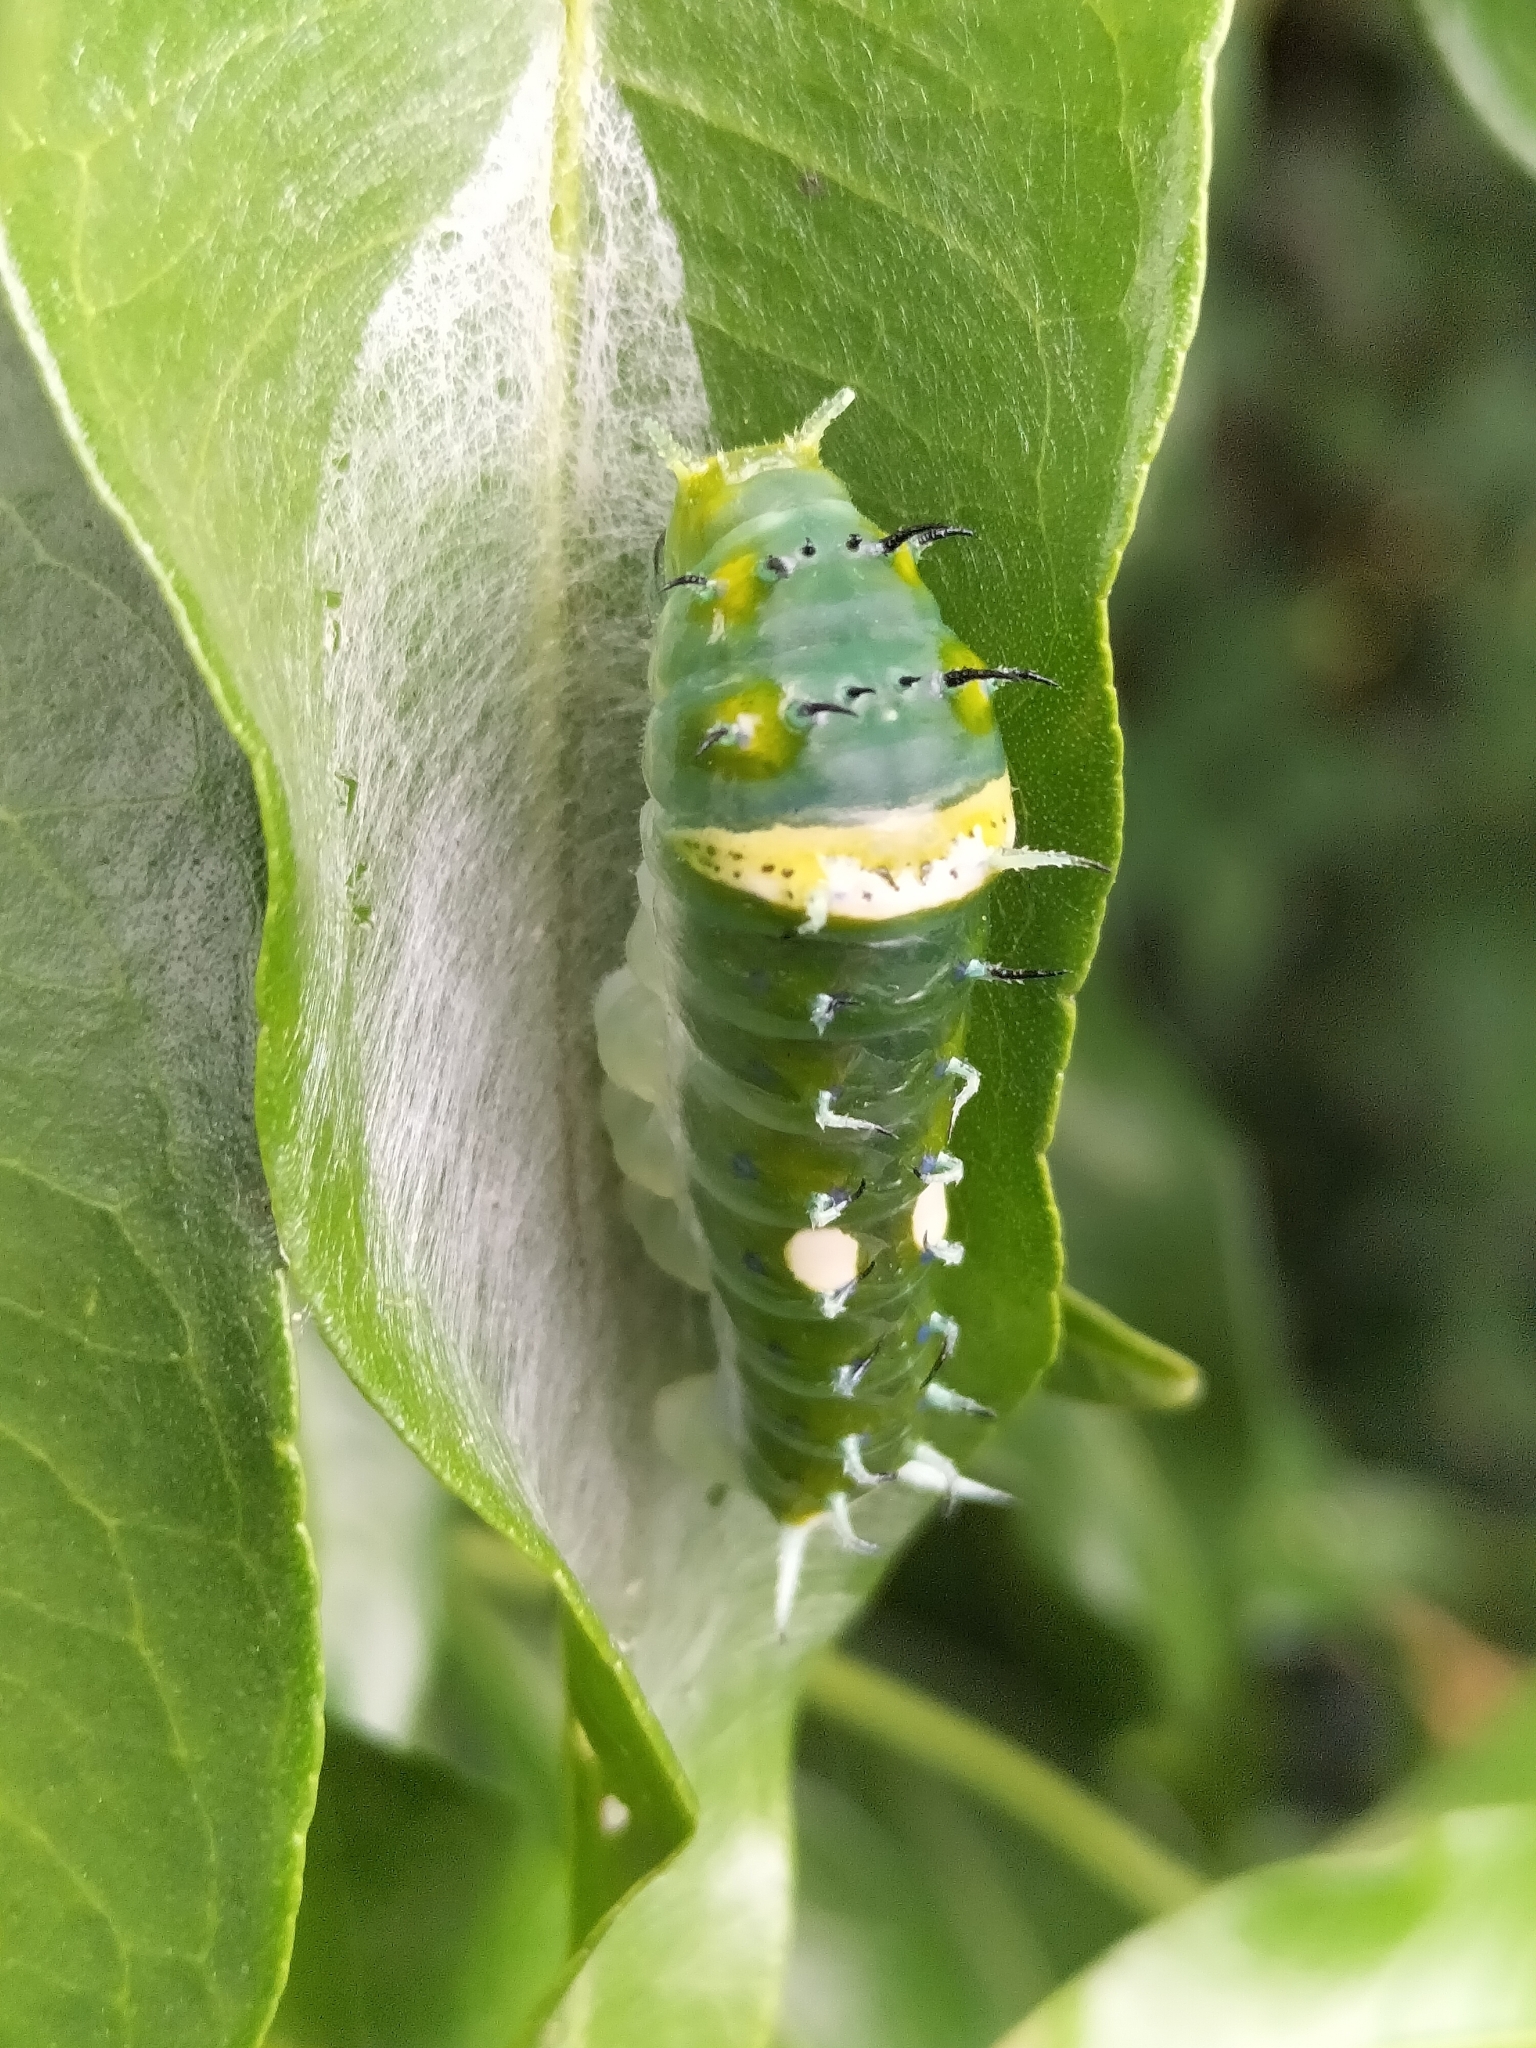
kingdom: Animalia
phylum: Arthropoda
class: Insecta
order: Lepidoptera
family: Papilionidae
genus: Papilio
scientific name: Papilio ulysses
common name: Blue emperor
